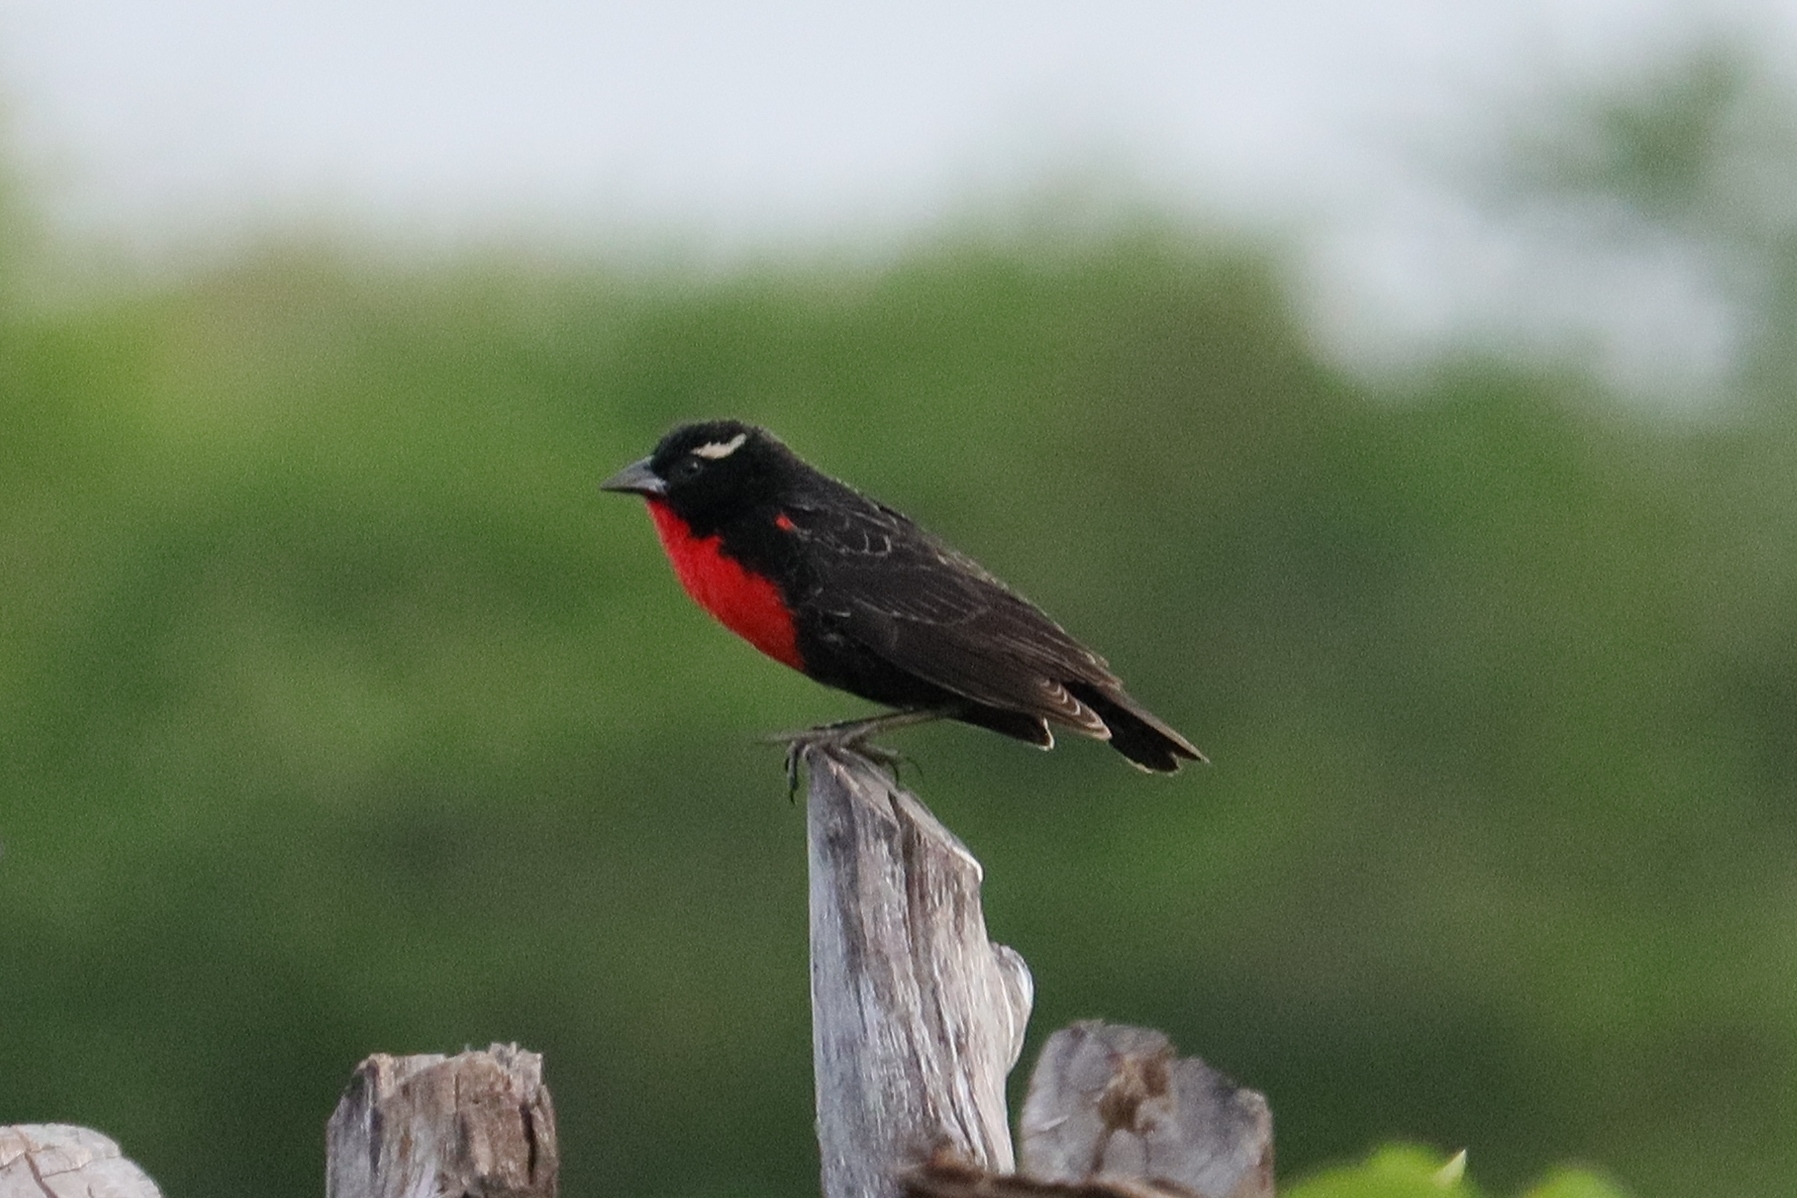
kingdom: Animalia
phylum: Chordata
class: Aves
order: Passeriformes
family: Icteridae
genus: Sturnella
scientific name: Sturnella superciliaris
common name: White-browed blackbird
